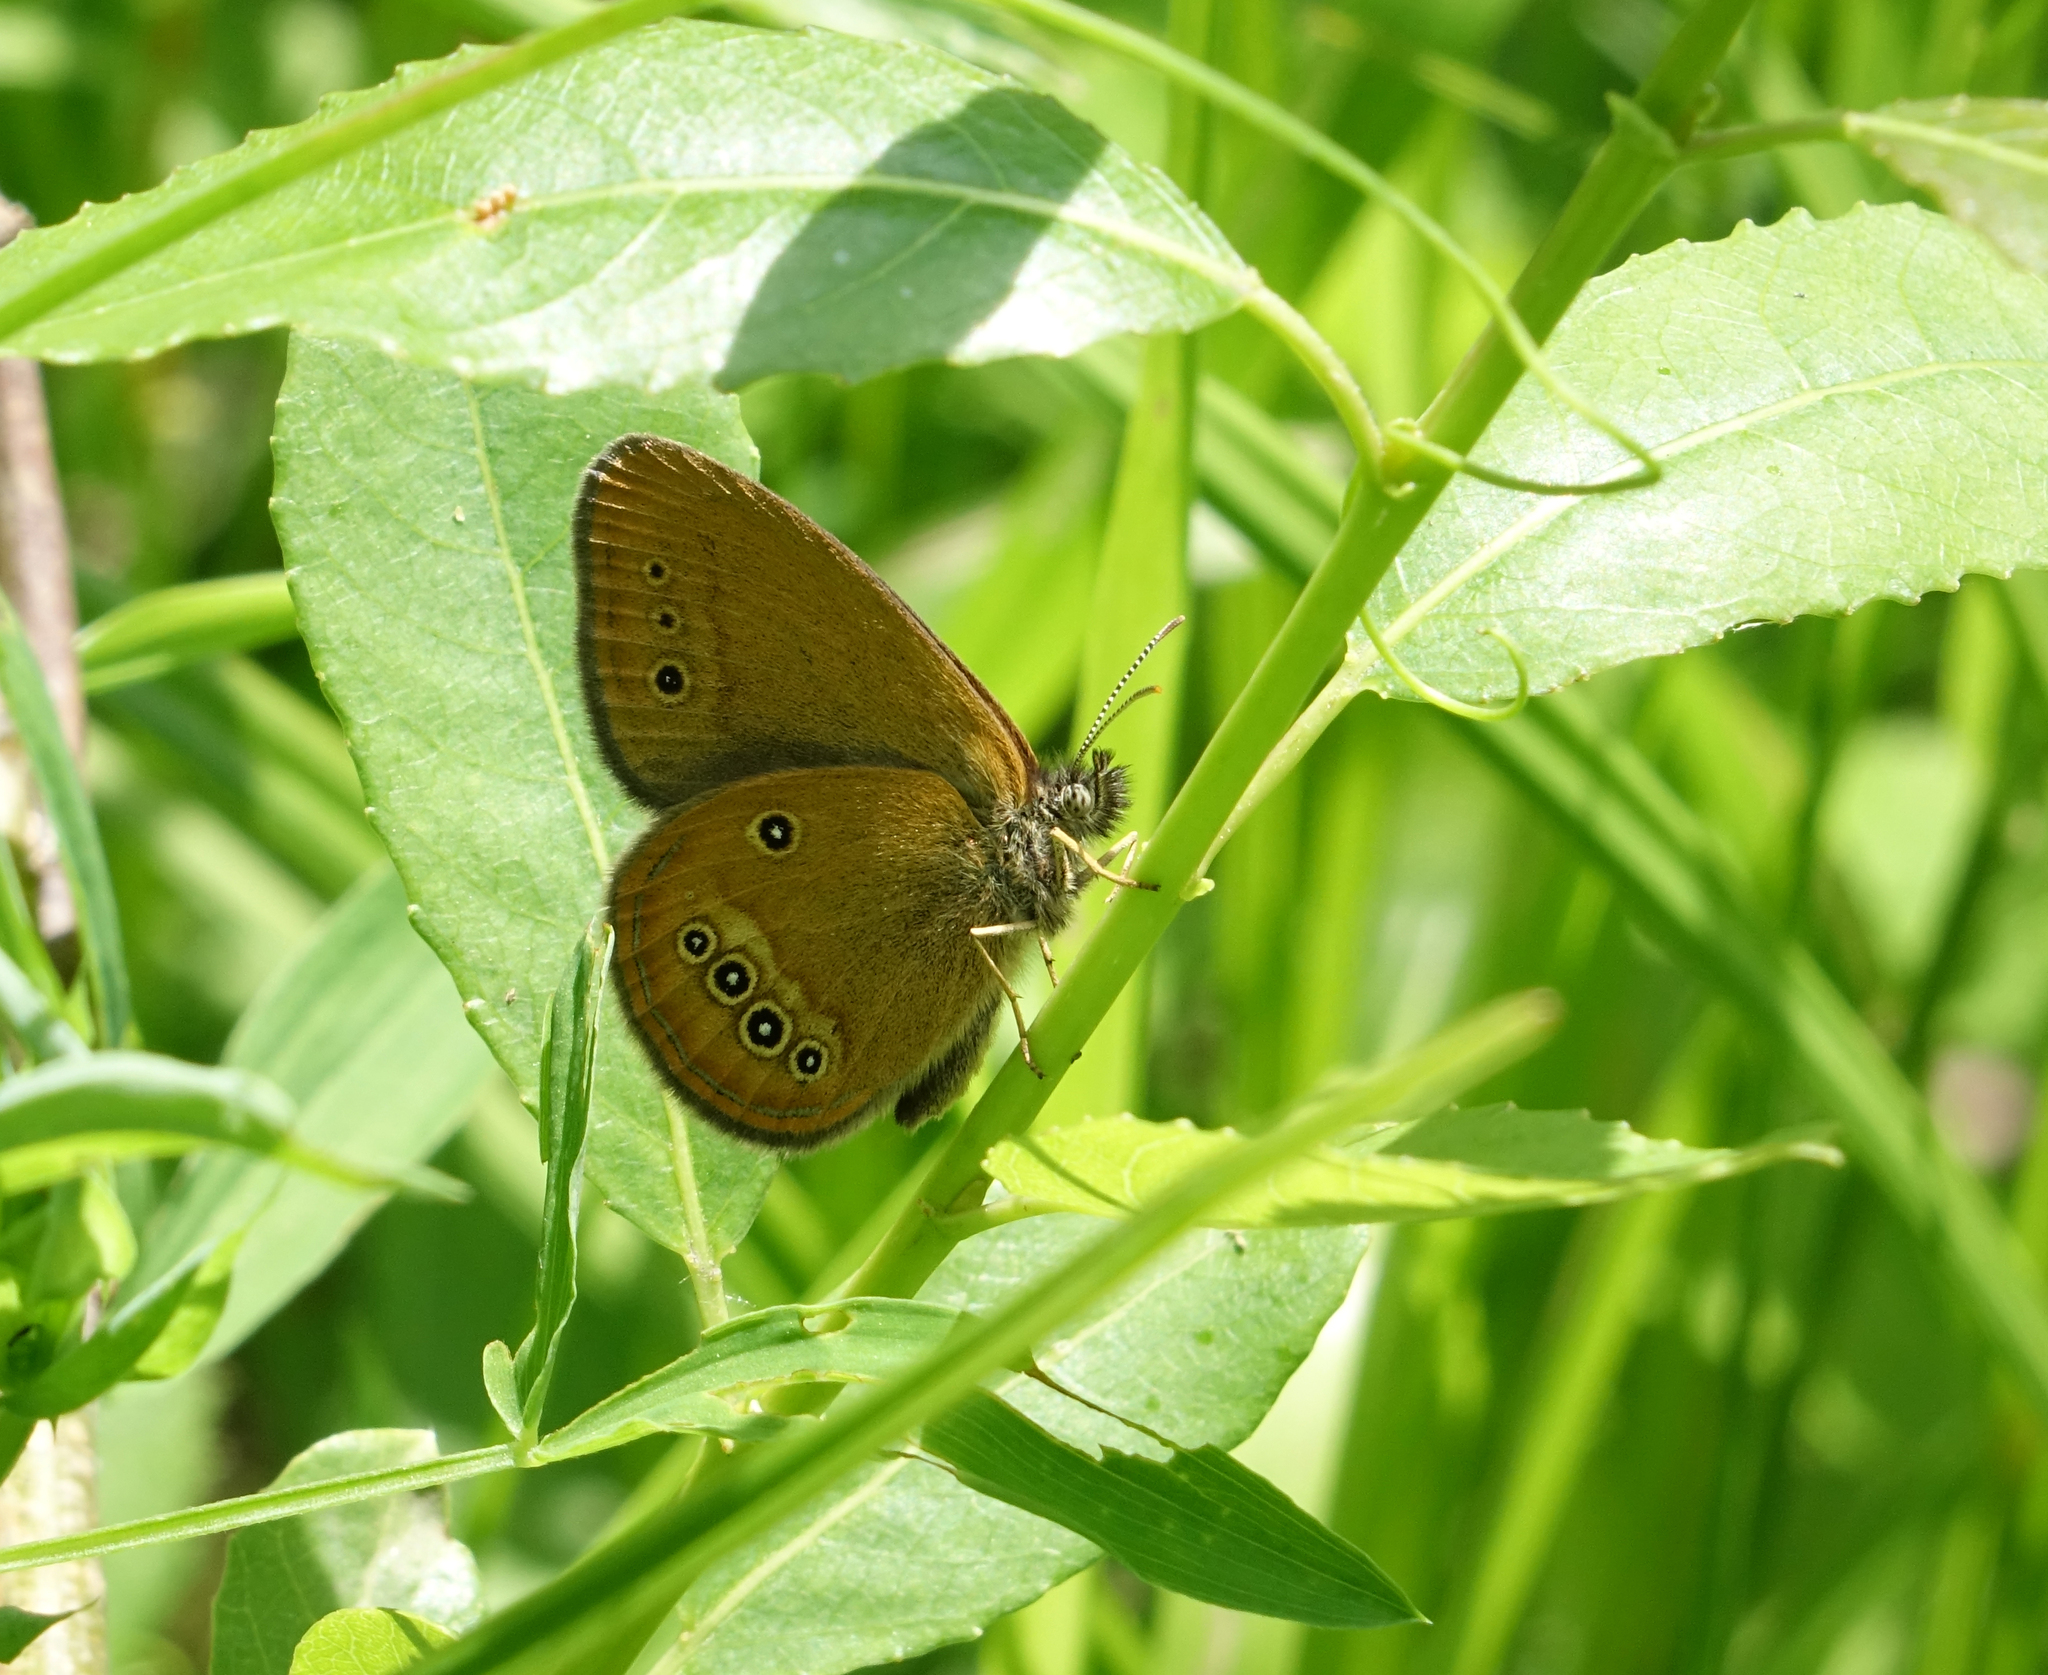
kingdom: Animalia
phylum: Arthropoda
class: Insecta
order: Lepidoptera
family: Nymphalidae
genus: Coenonympha
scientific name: Coenonympha oedippus
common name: False ringlet
